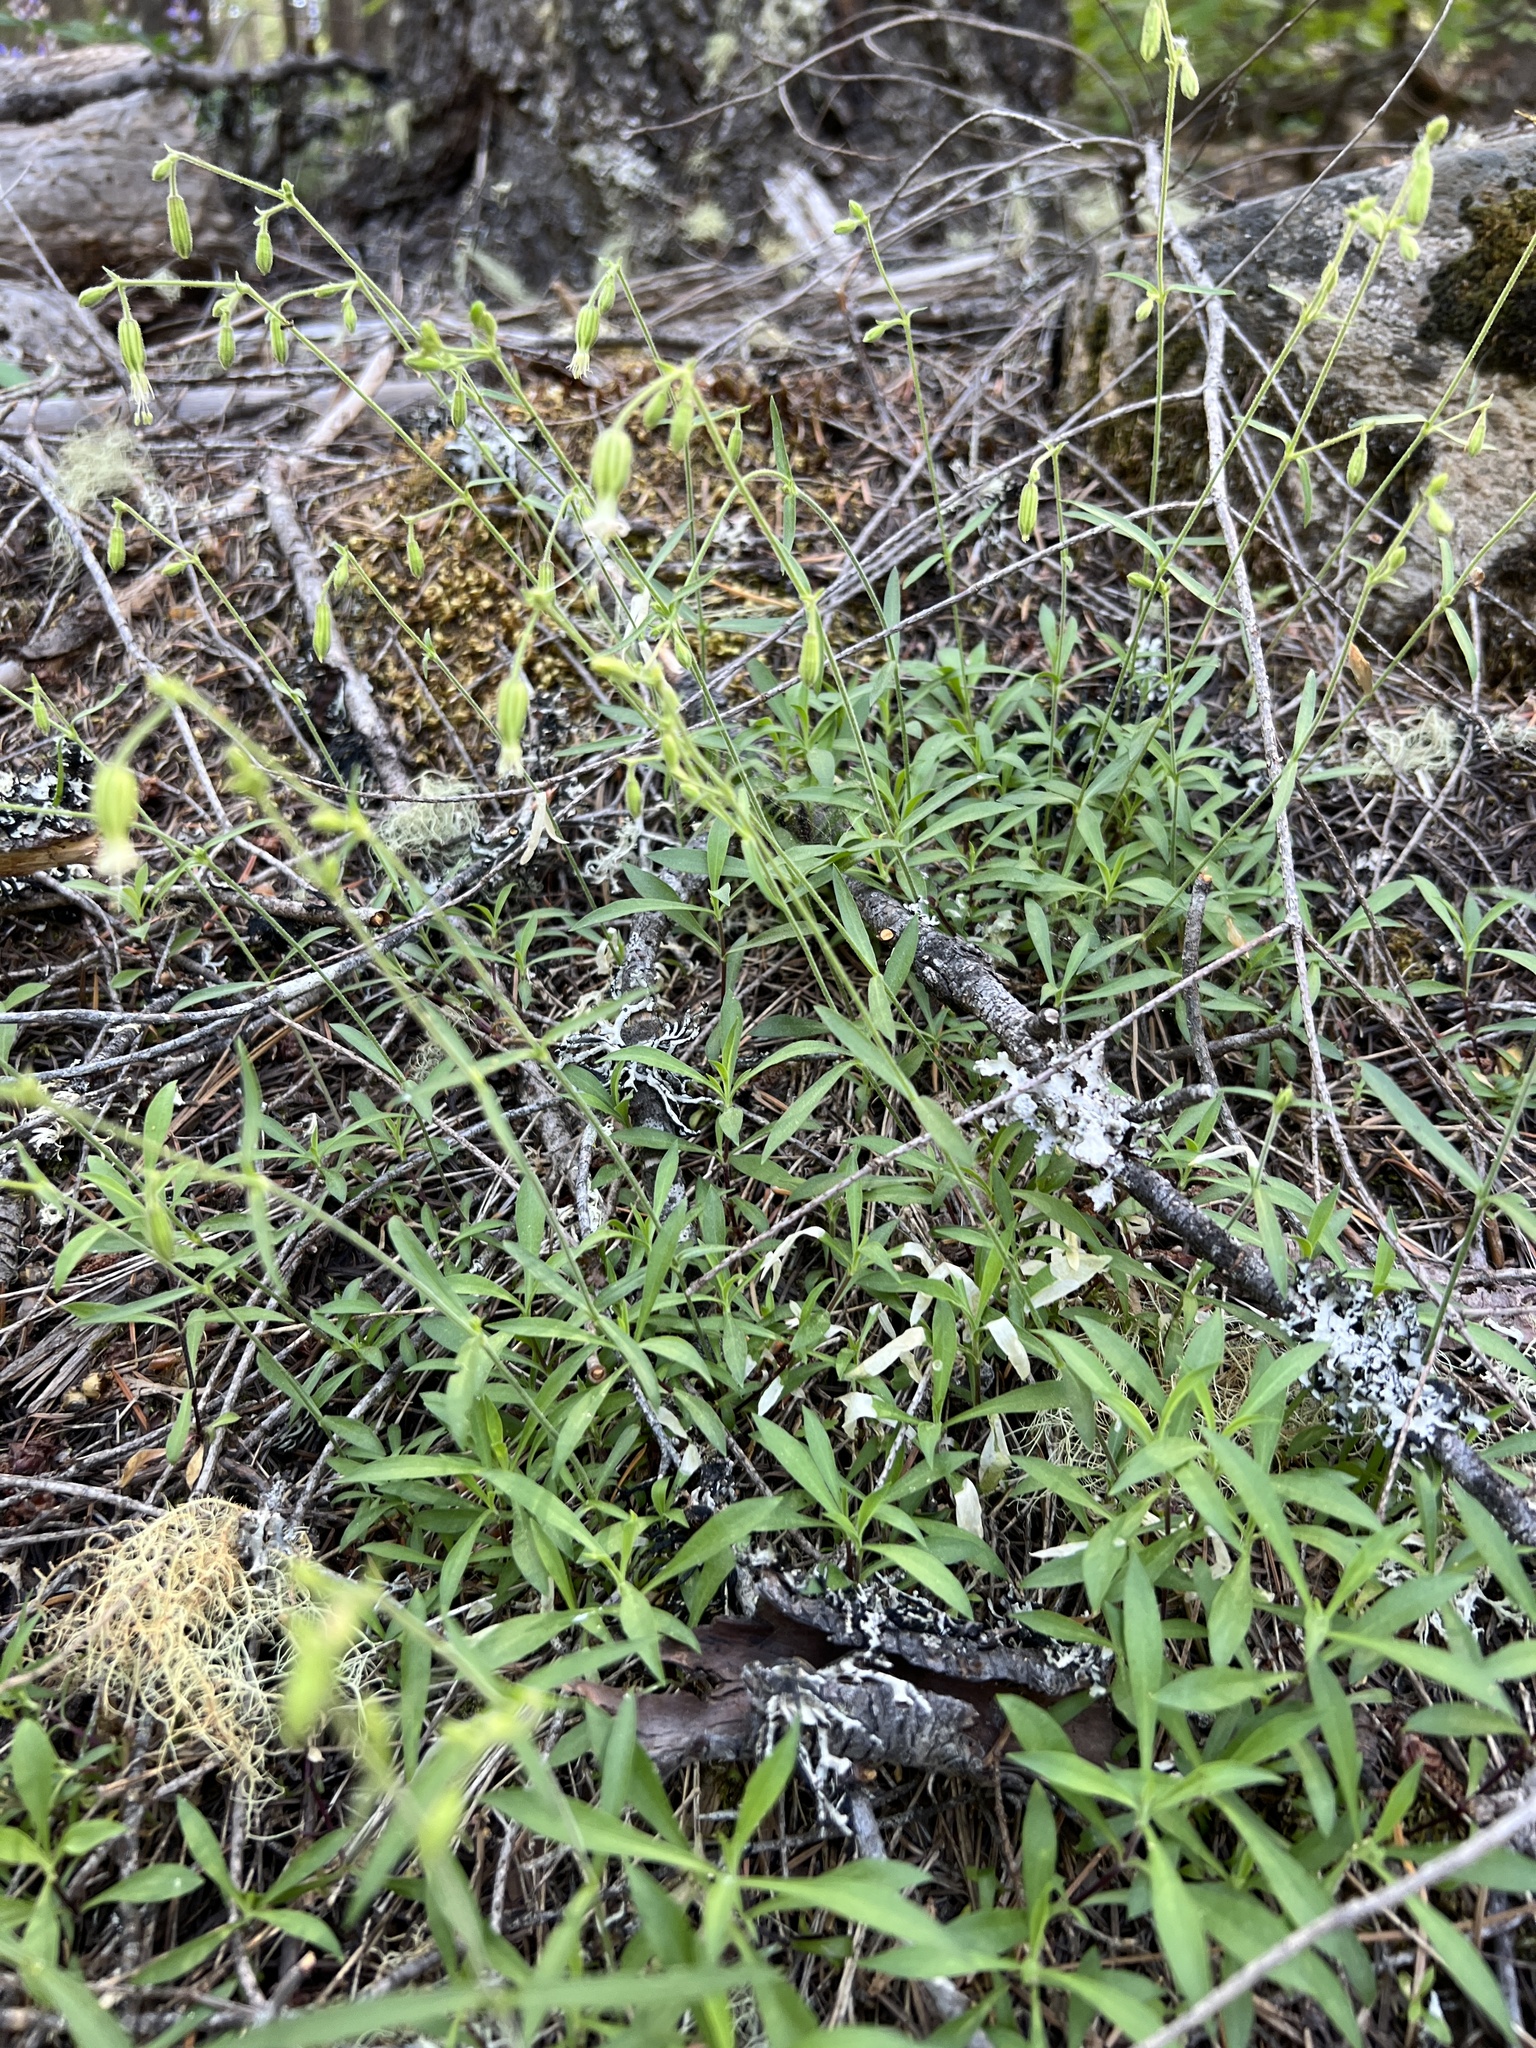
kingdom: Plantae
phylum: Tracheophyta
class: Magnoliopsida
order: Caryophyllales
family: Caryophyllaceae
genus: Silene
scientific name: Silene lemmonii
